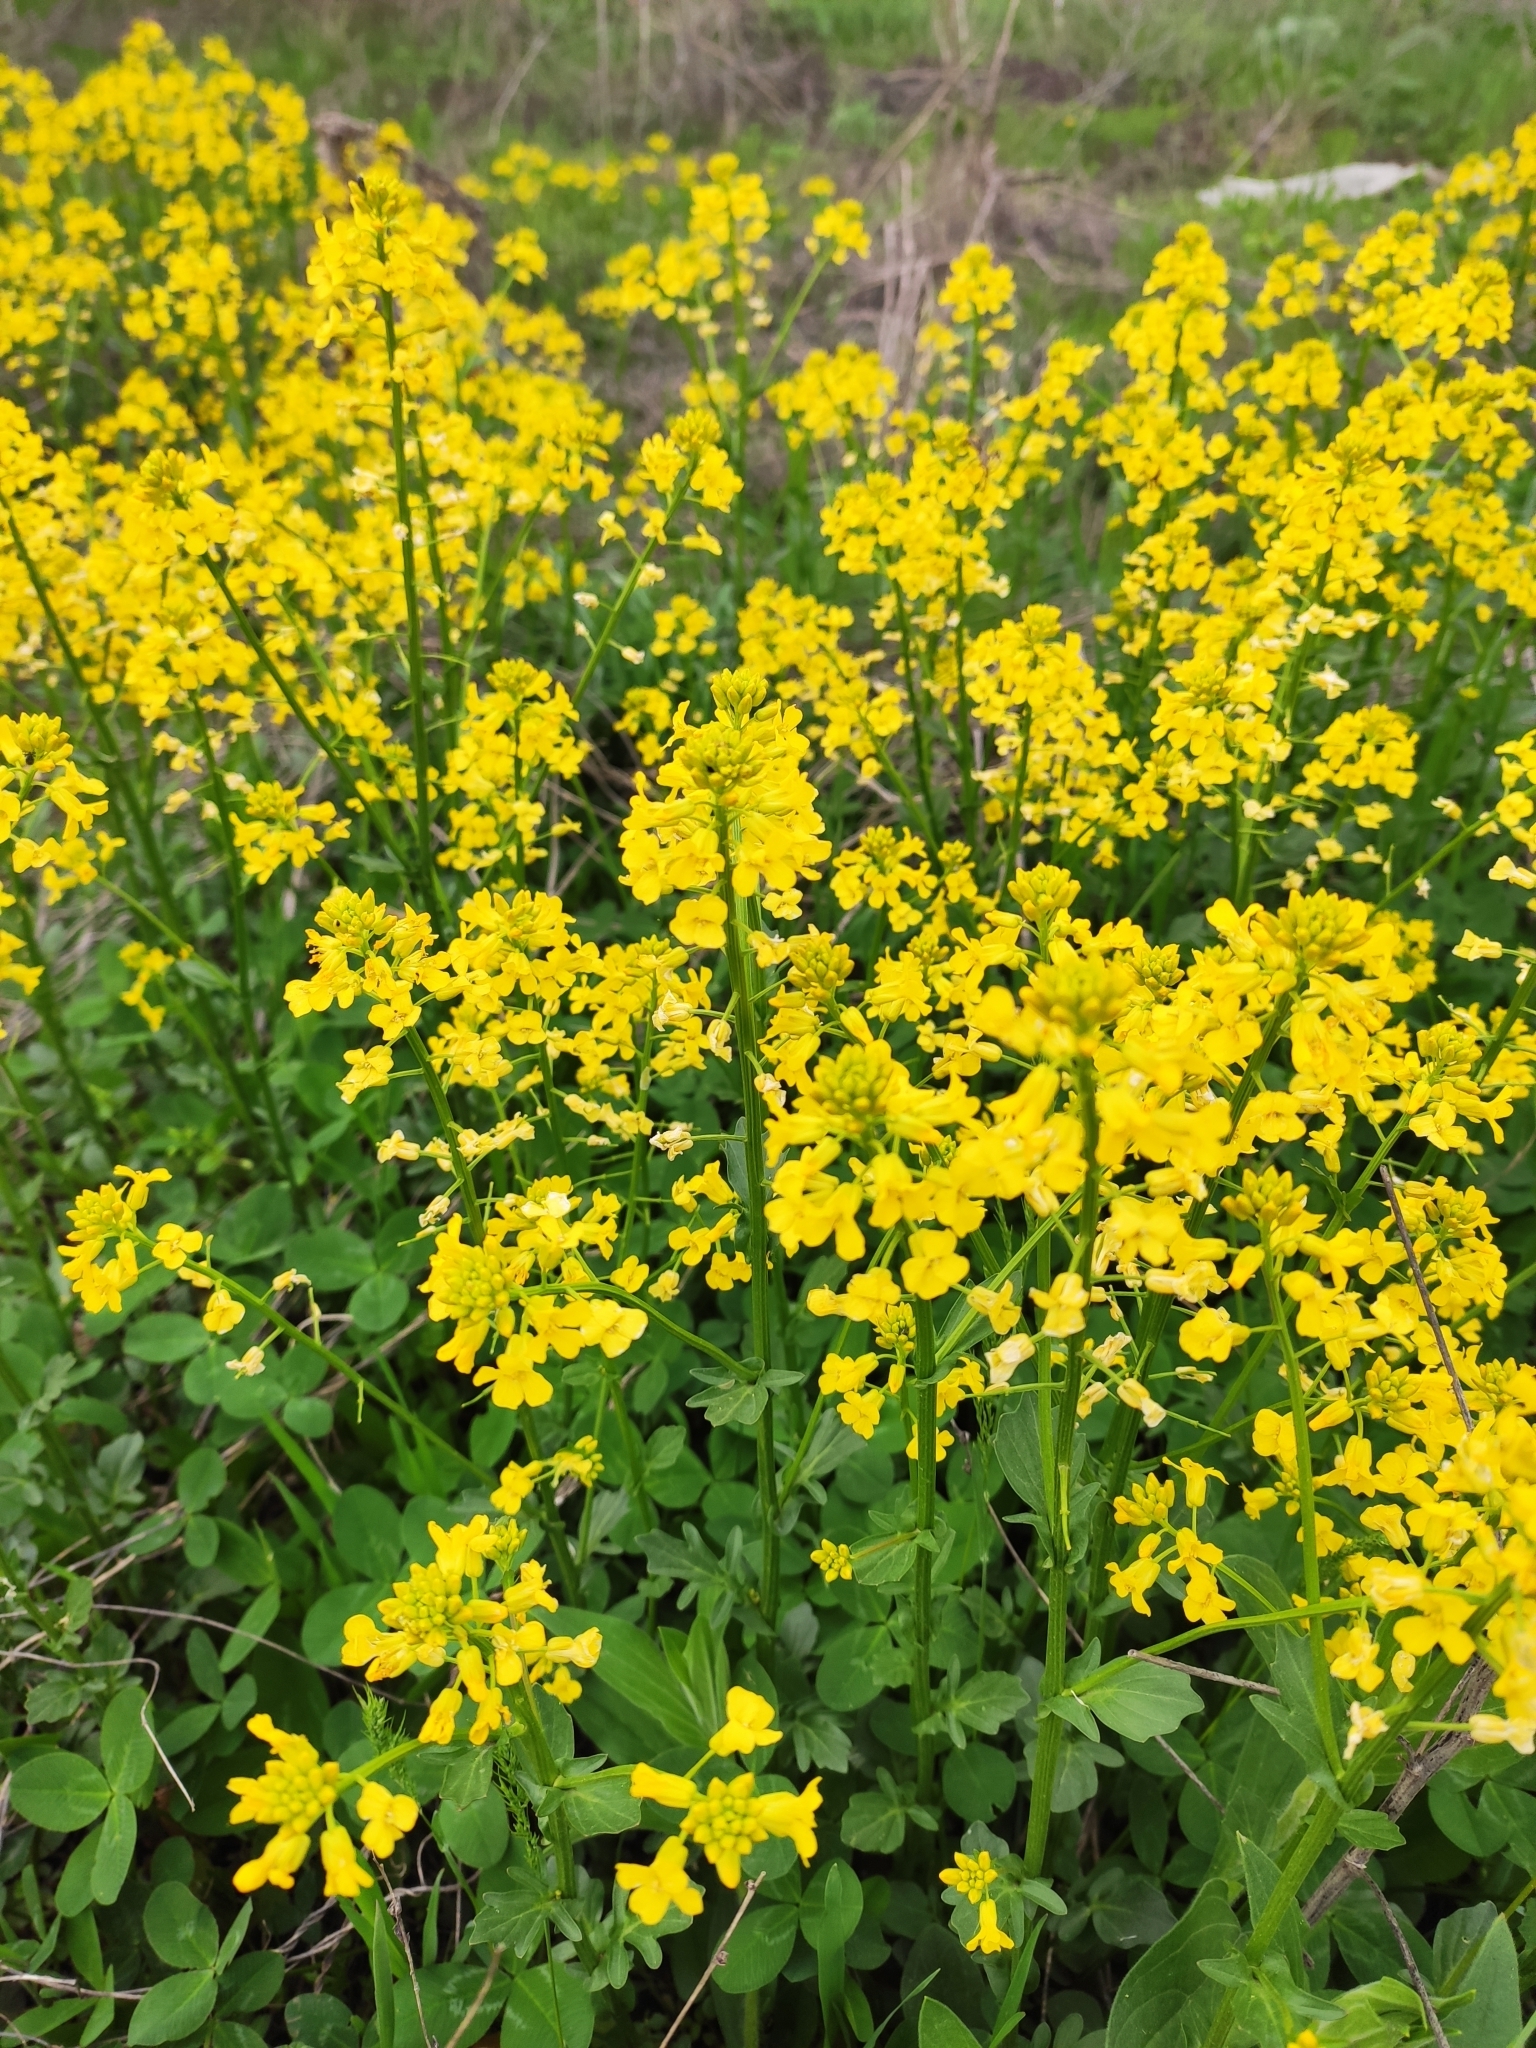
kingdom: Plantae
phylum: Tracheophyta
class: Magnoliopsida
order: Brassicales
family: Brassicaceae
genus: Barbarea
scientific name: Barbarea vulgaris
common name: Cressy-greens
